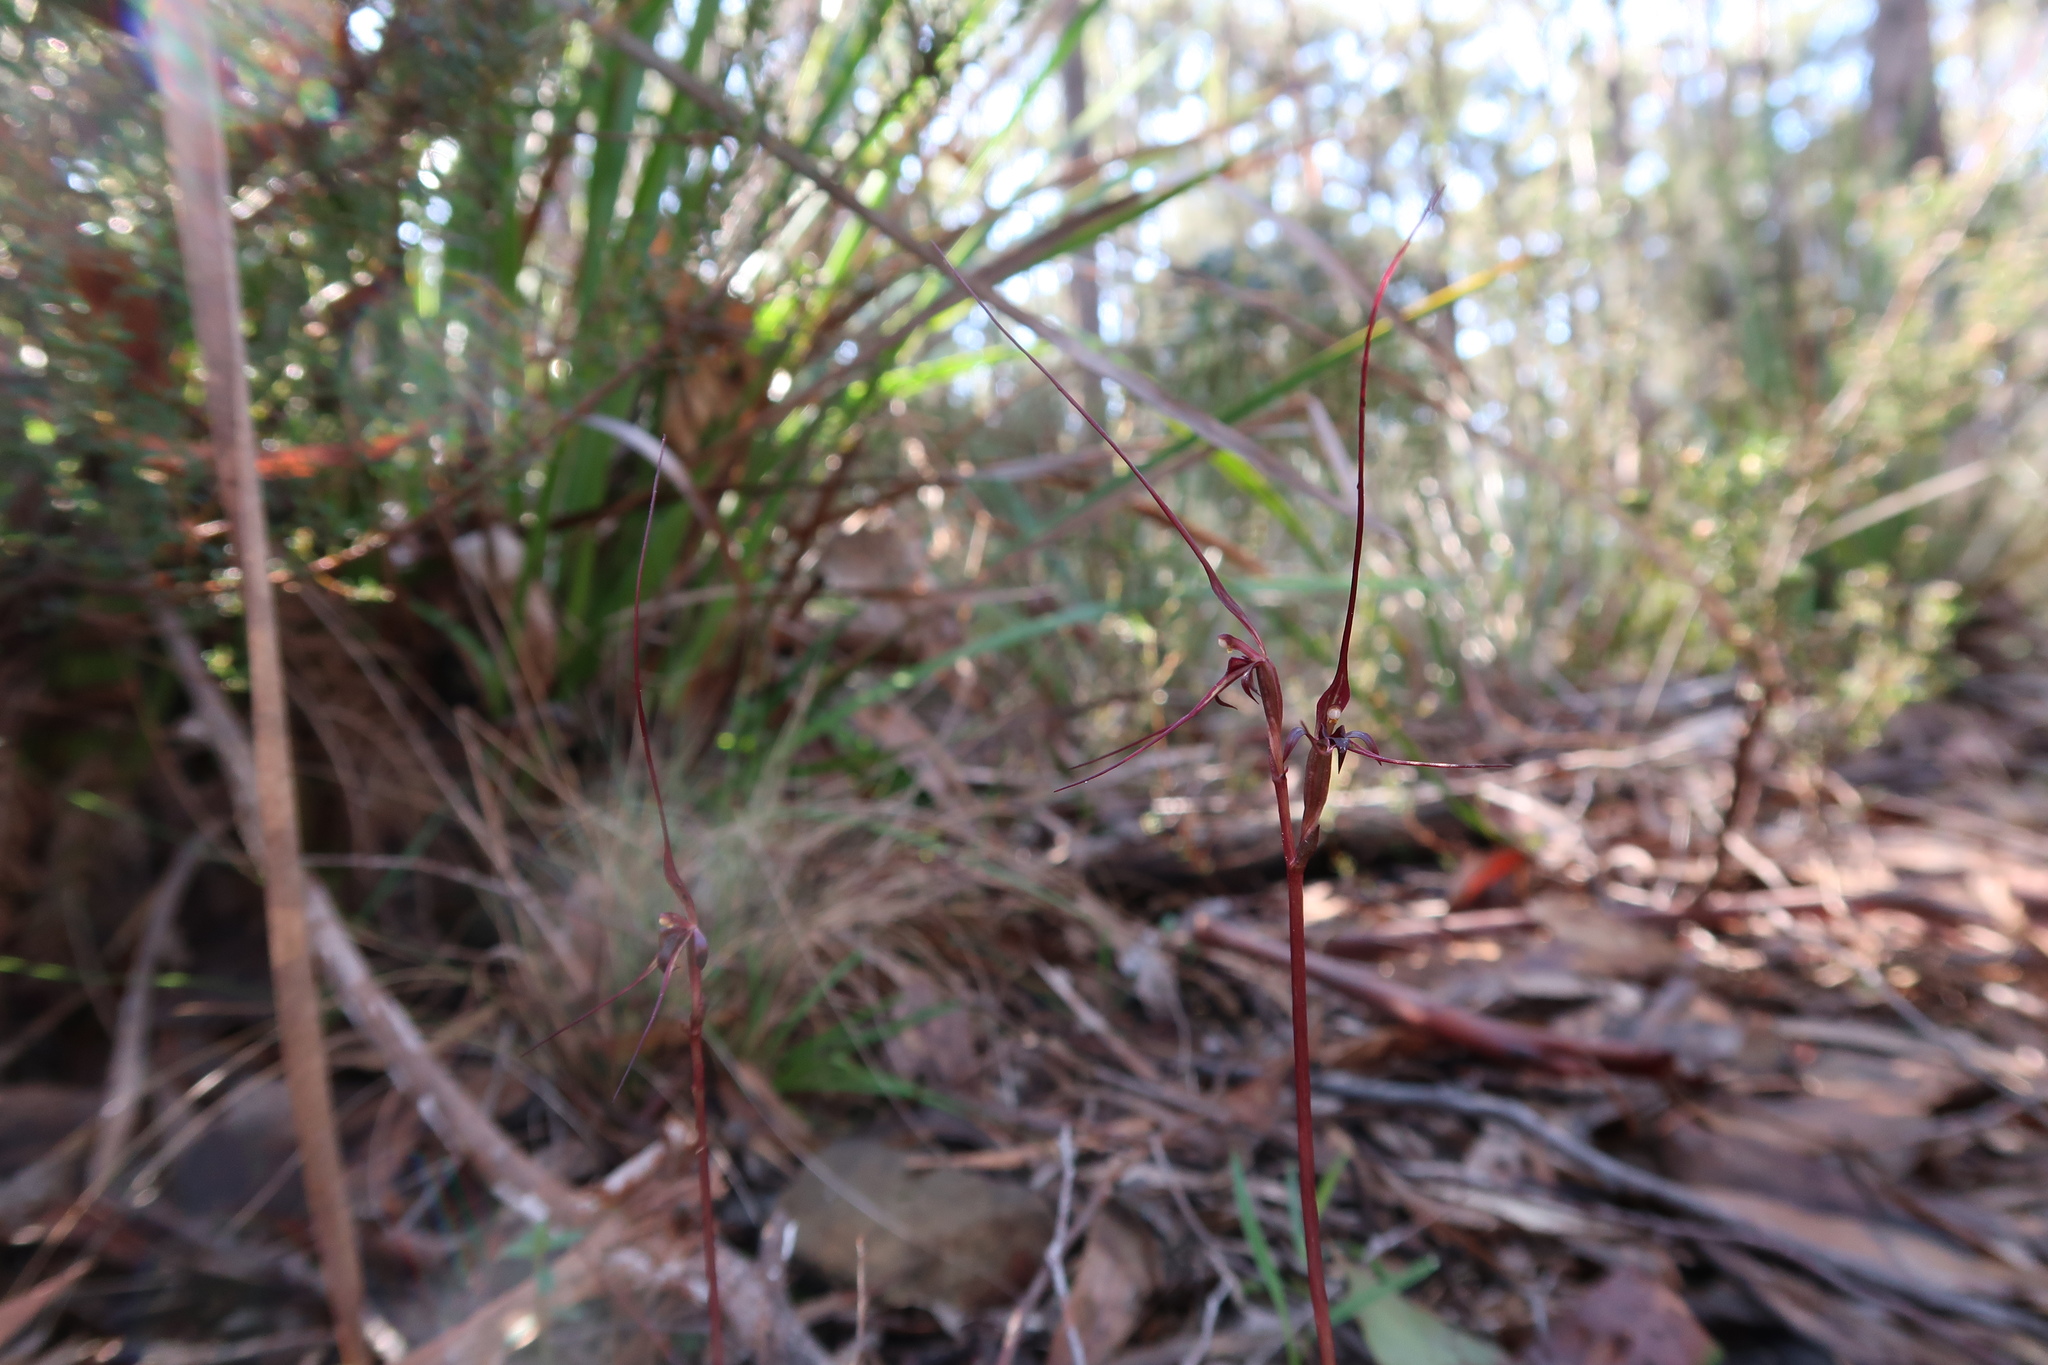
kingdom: Plantae
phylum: Tracheophyta
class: Liliopsida
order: Asparagales
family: Orchidaceae
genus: Acianthus
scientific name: Acianthus caudatus
